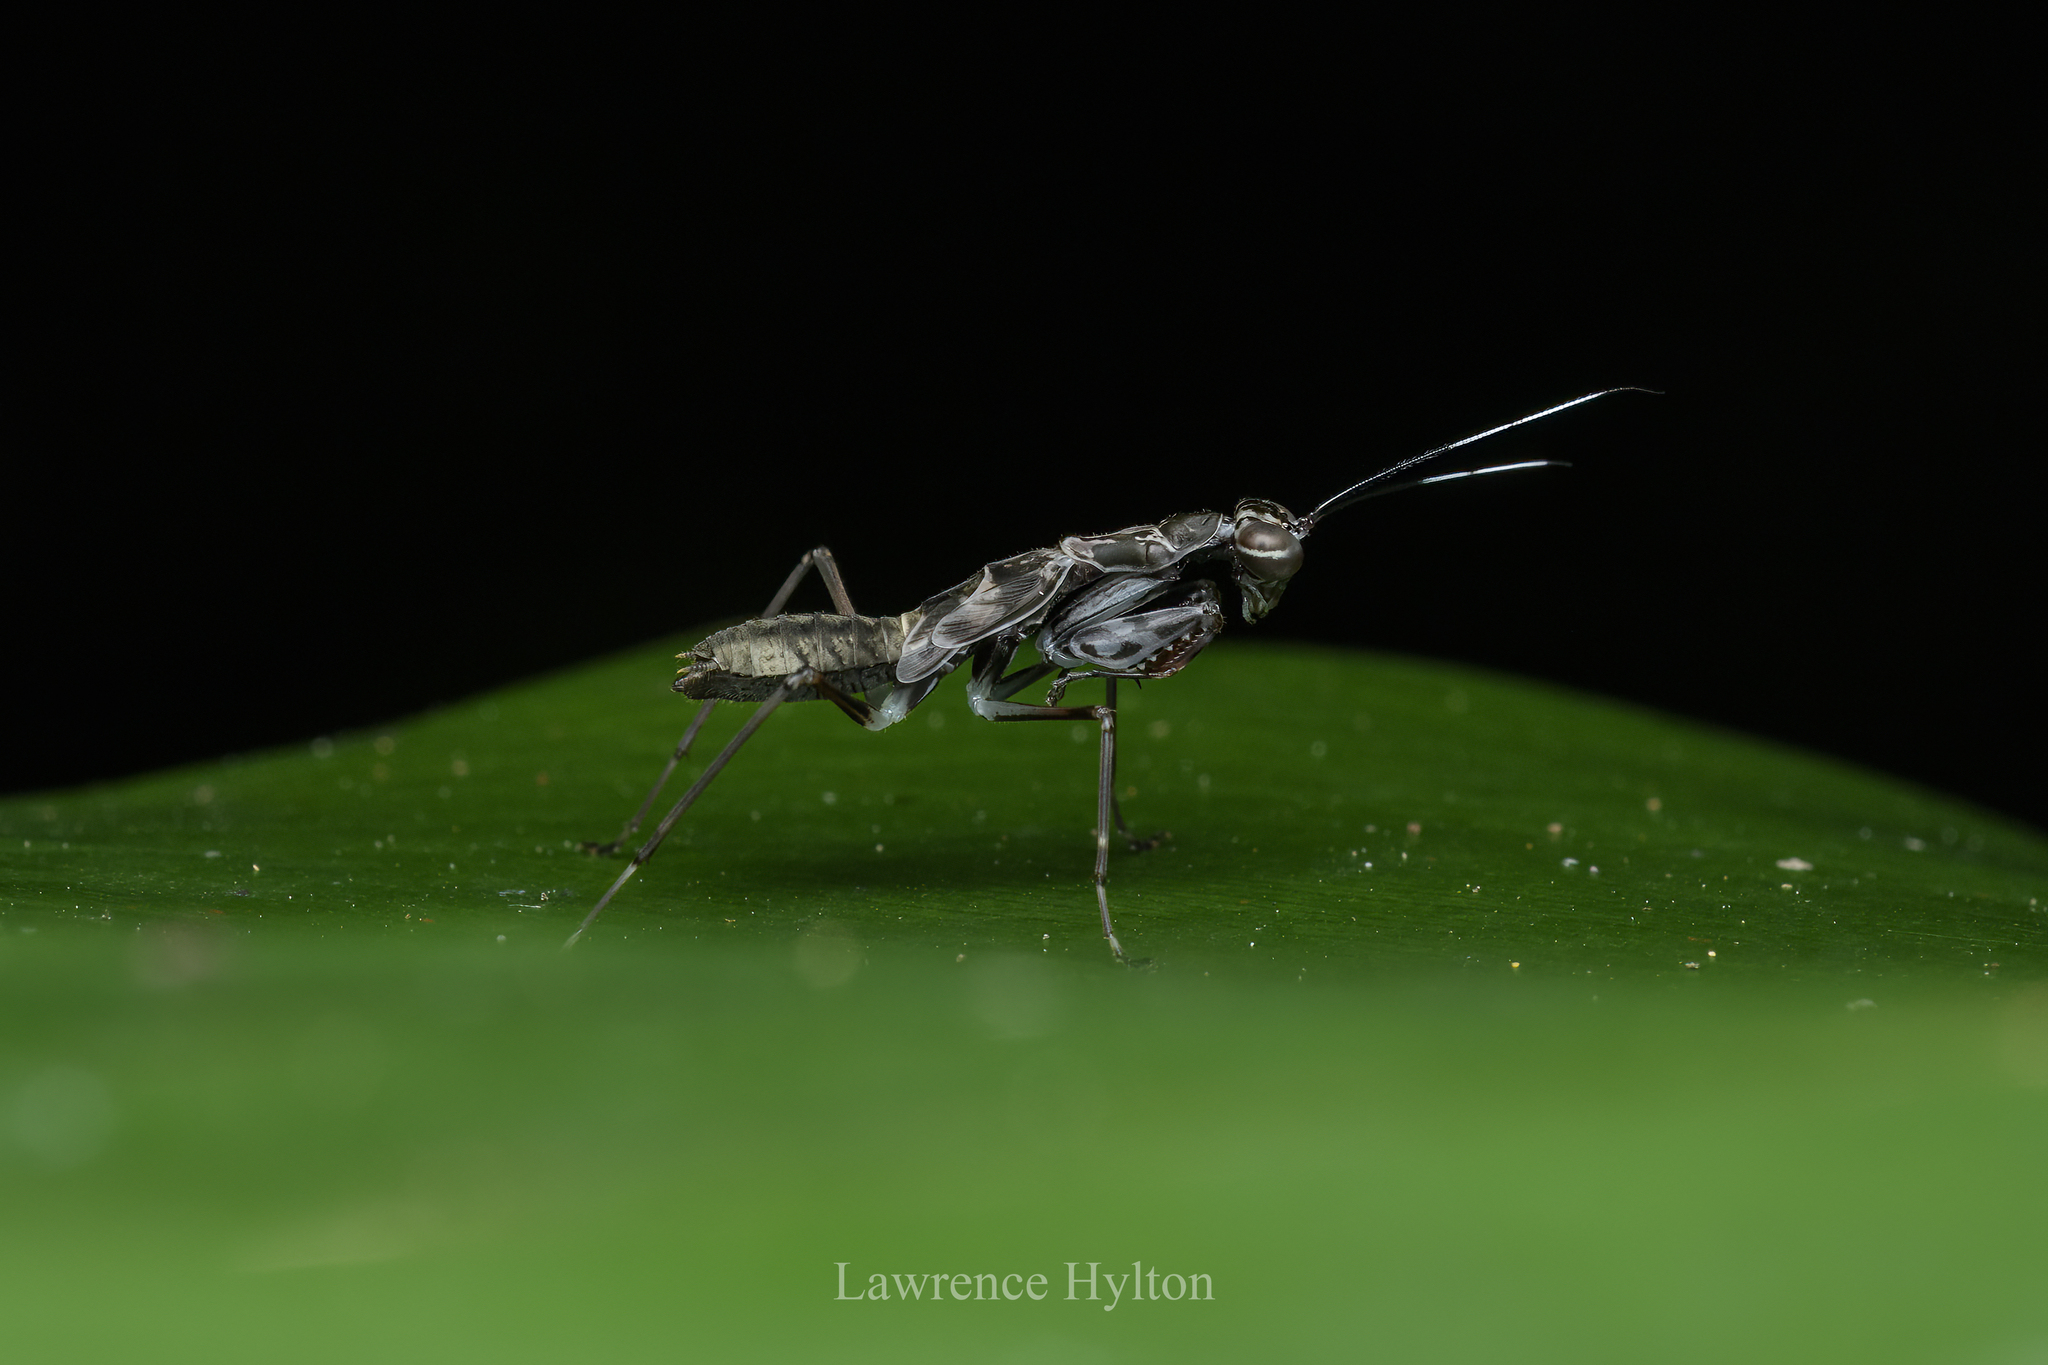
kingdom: Animalia
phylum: Arthropoda
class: Insecta
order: Mantodea
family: Gonypetidae
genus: Spilomantis
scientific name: Spilomantis occipitalis
